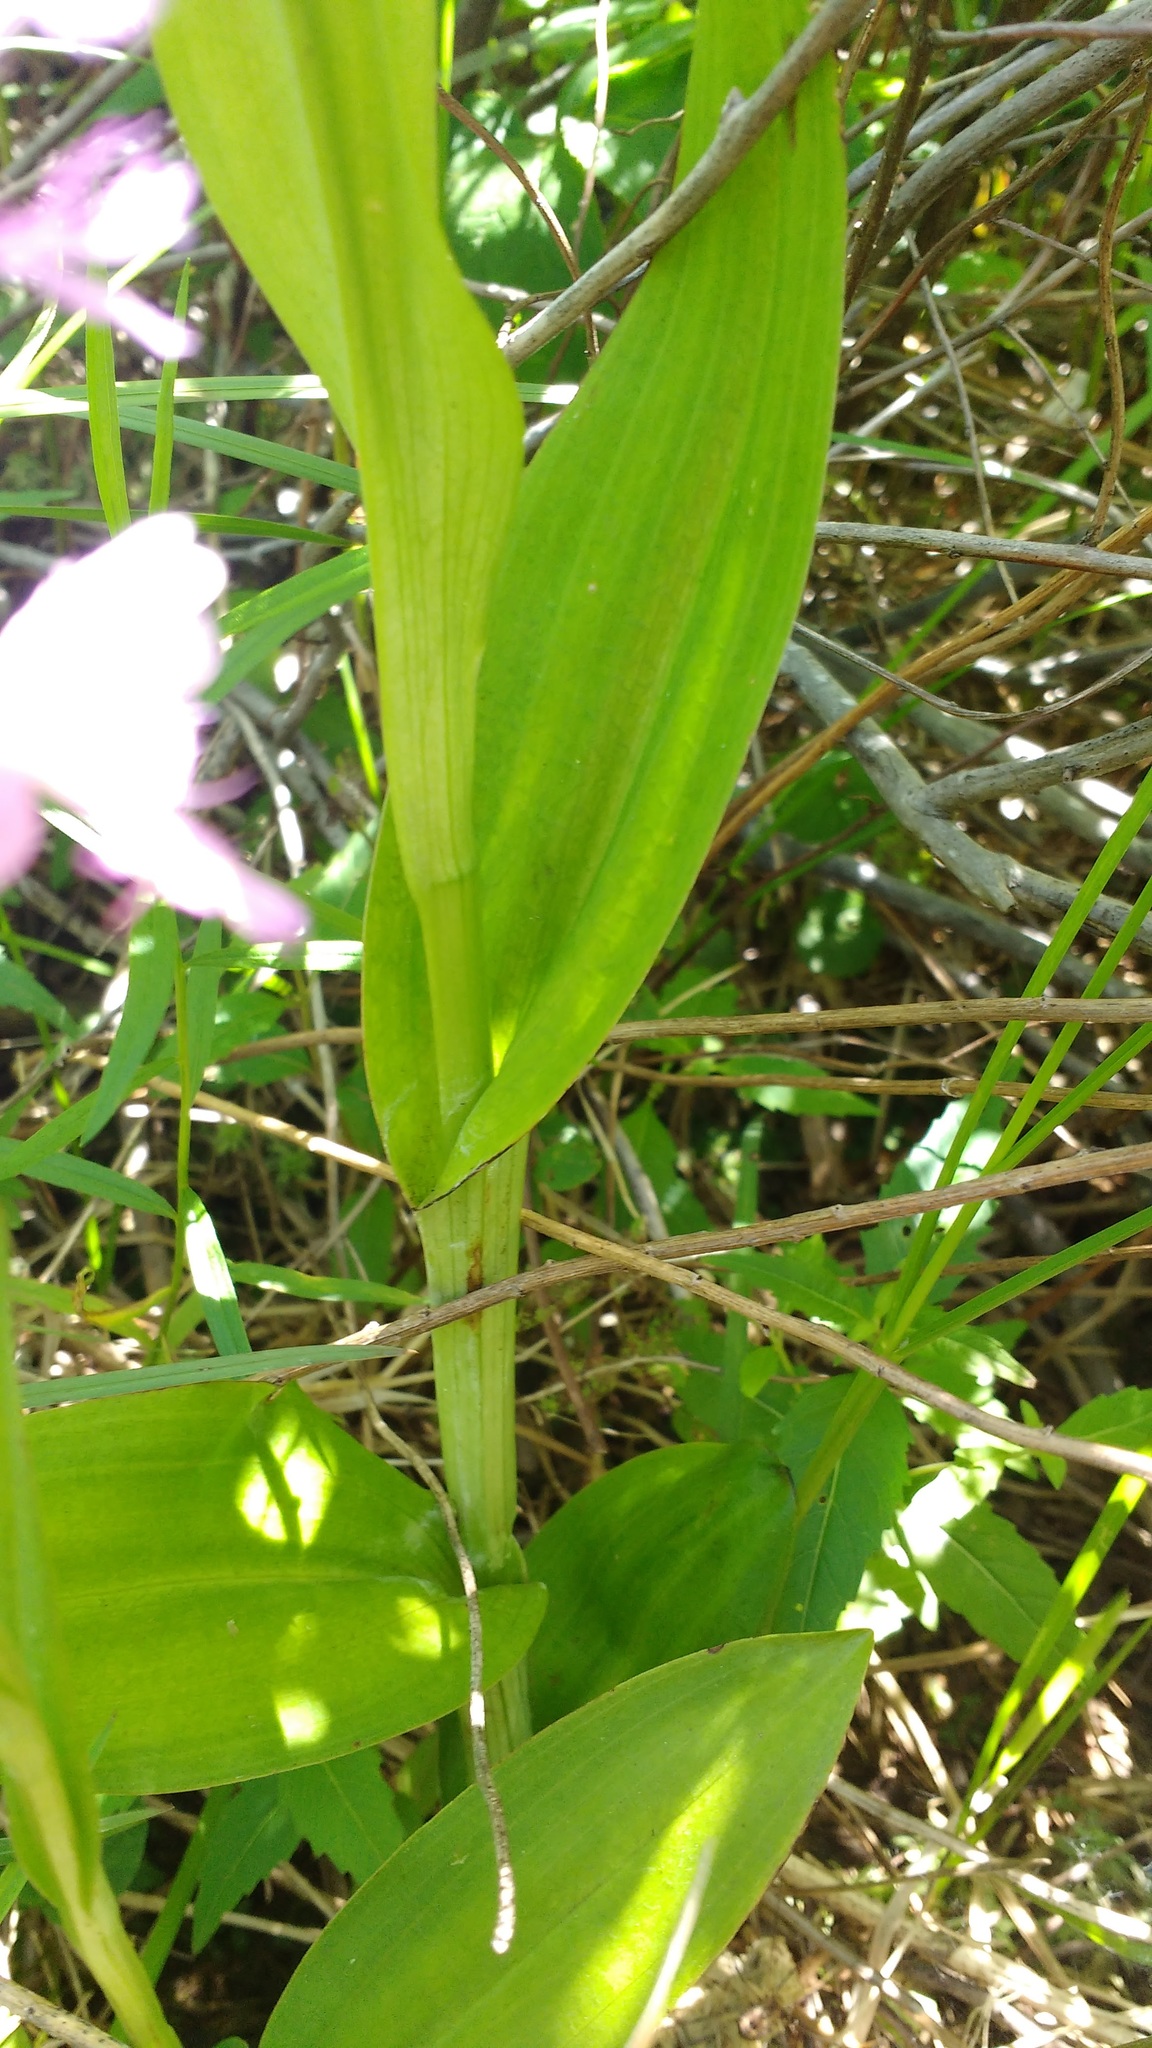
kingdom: Plantae
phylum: Tracheophyta
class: Liliopsida
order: Asparagales
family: Orchidaceae
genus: Platanthera
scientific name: Platanthera grandiflora
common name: Greater purple fringed orchid
